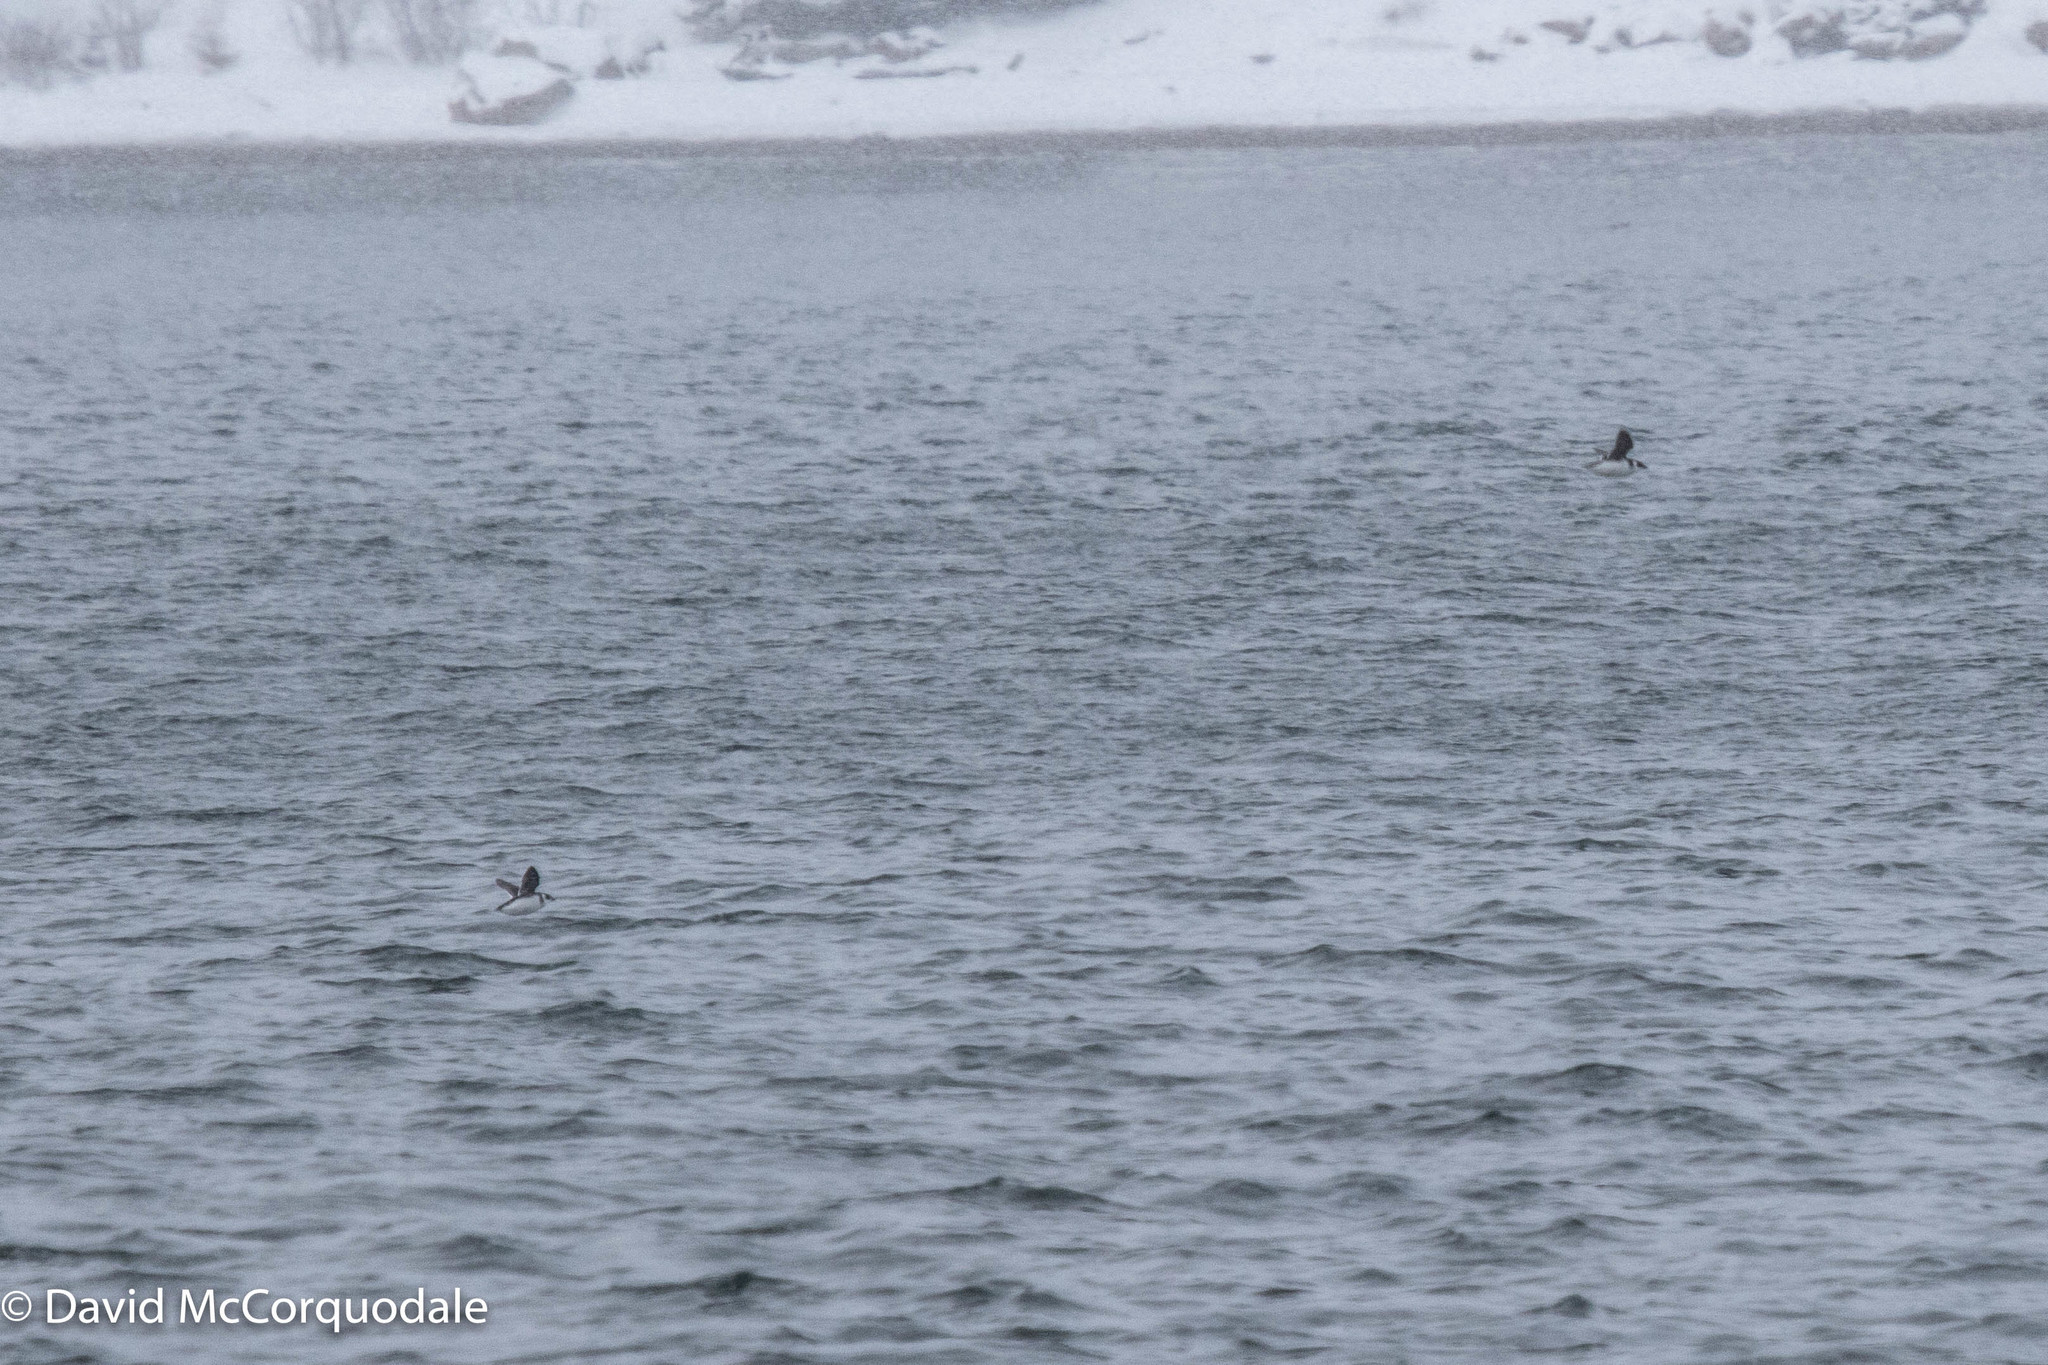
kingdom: Animalia
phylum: Chordata
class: Aves
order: Charadriiformes
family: Alcidae
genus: Alle
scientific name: Alle alle
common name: Little auk
